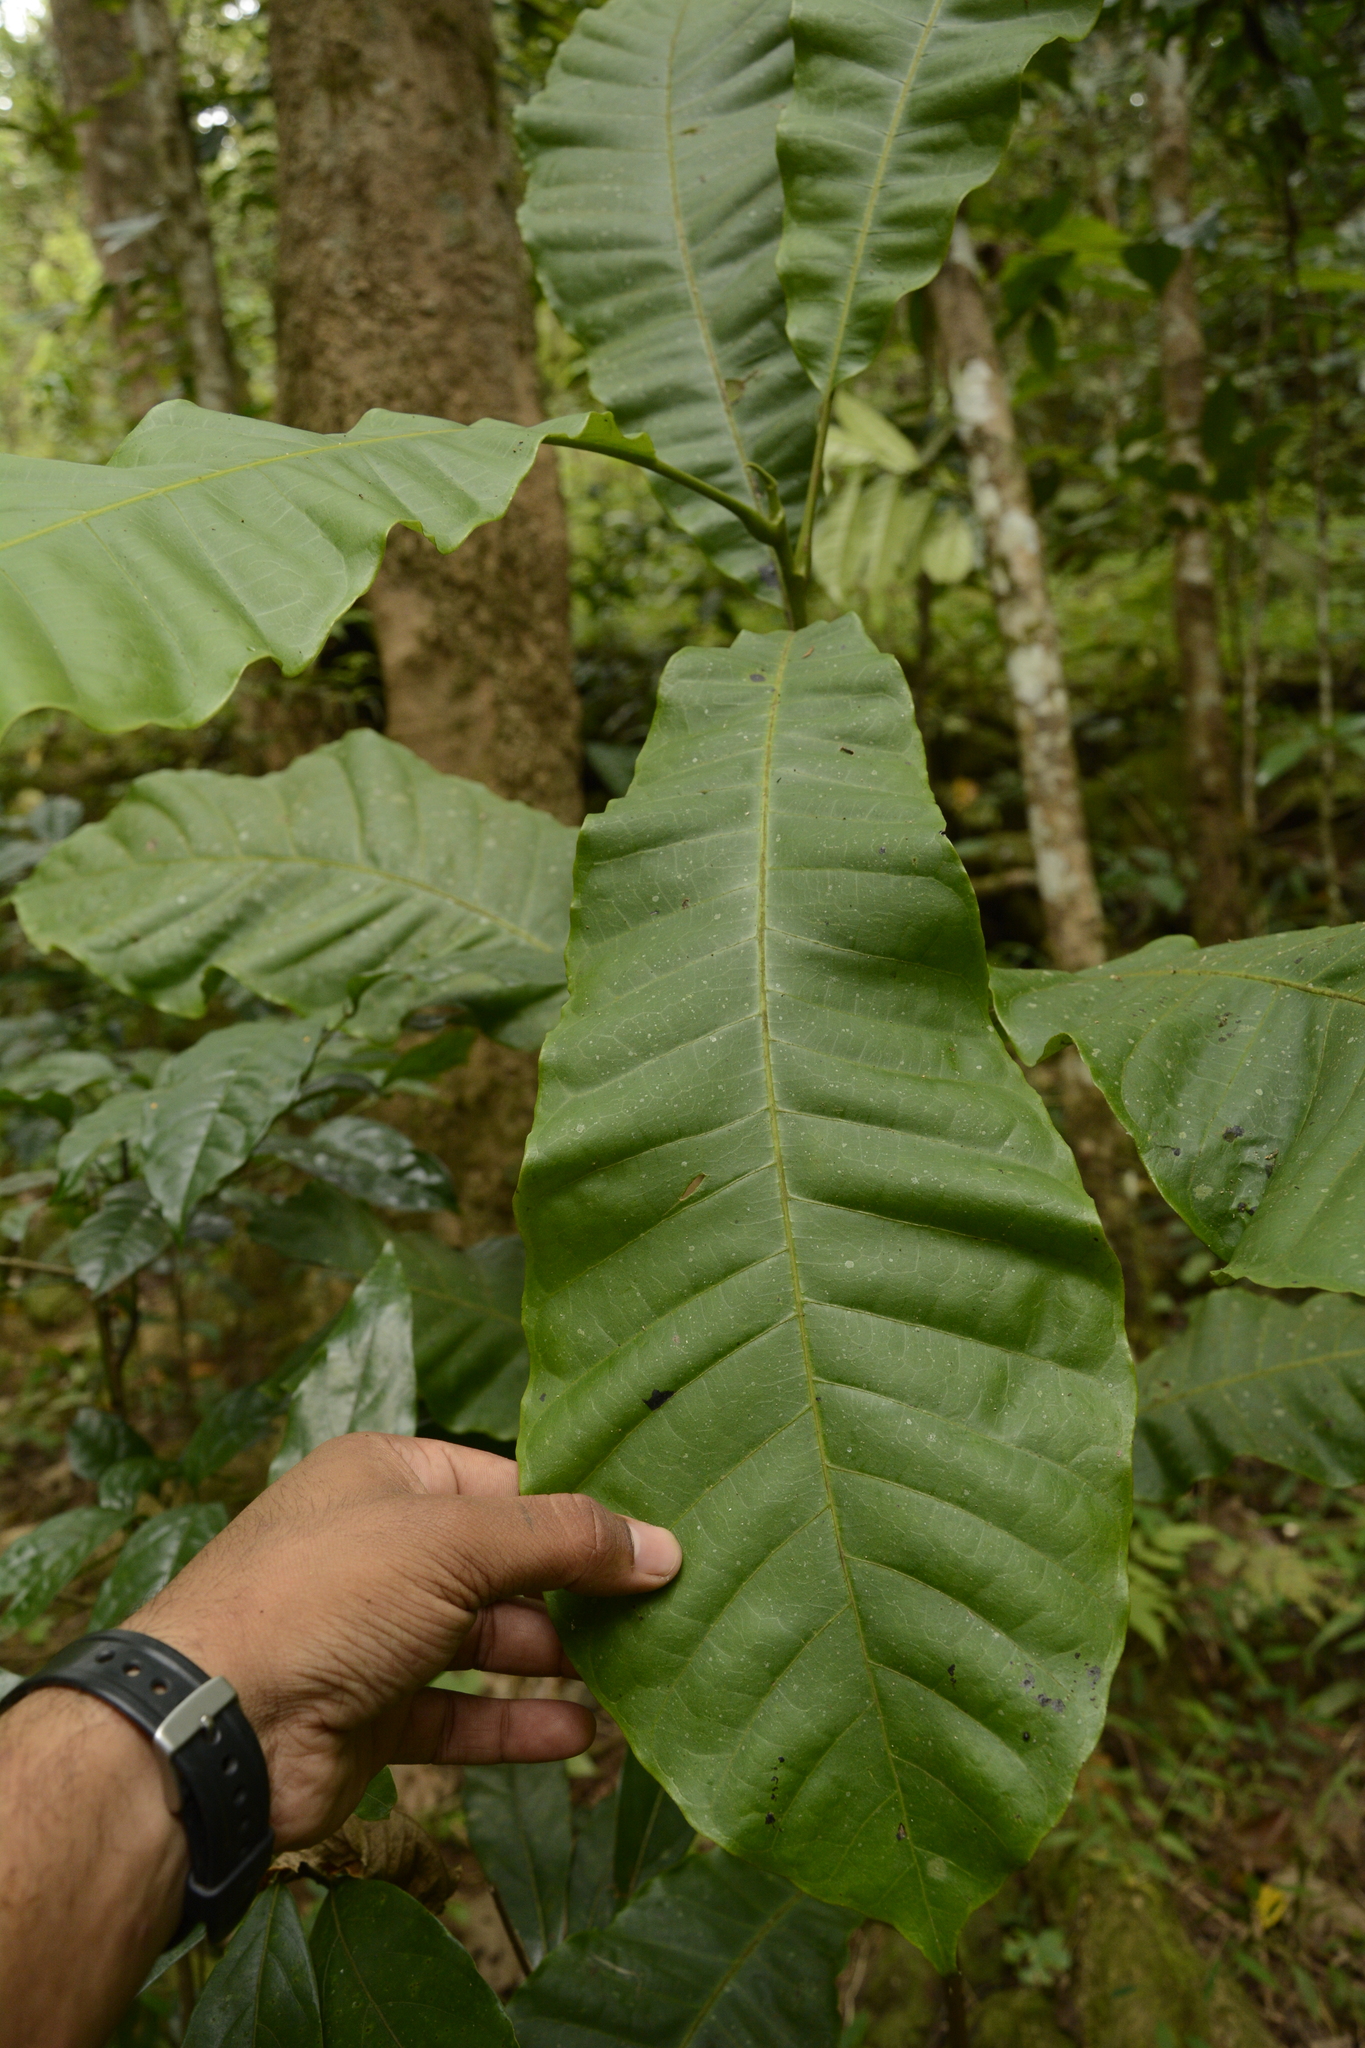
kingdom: Plantae
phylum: Tracheophyta
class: Magnoliopsida
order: Sapindales
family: Anacardiaceae
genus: Semecarpus
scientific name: Semecarpus travancoricus
